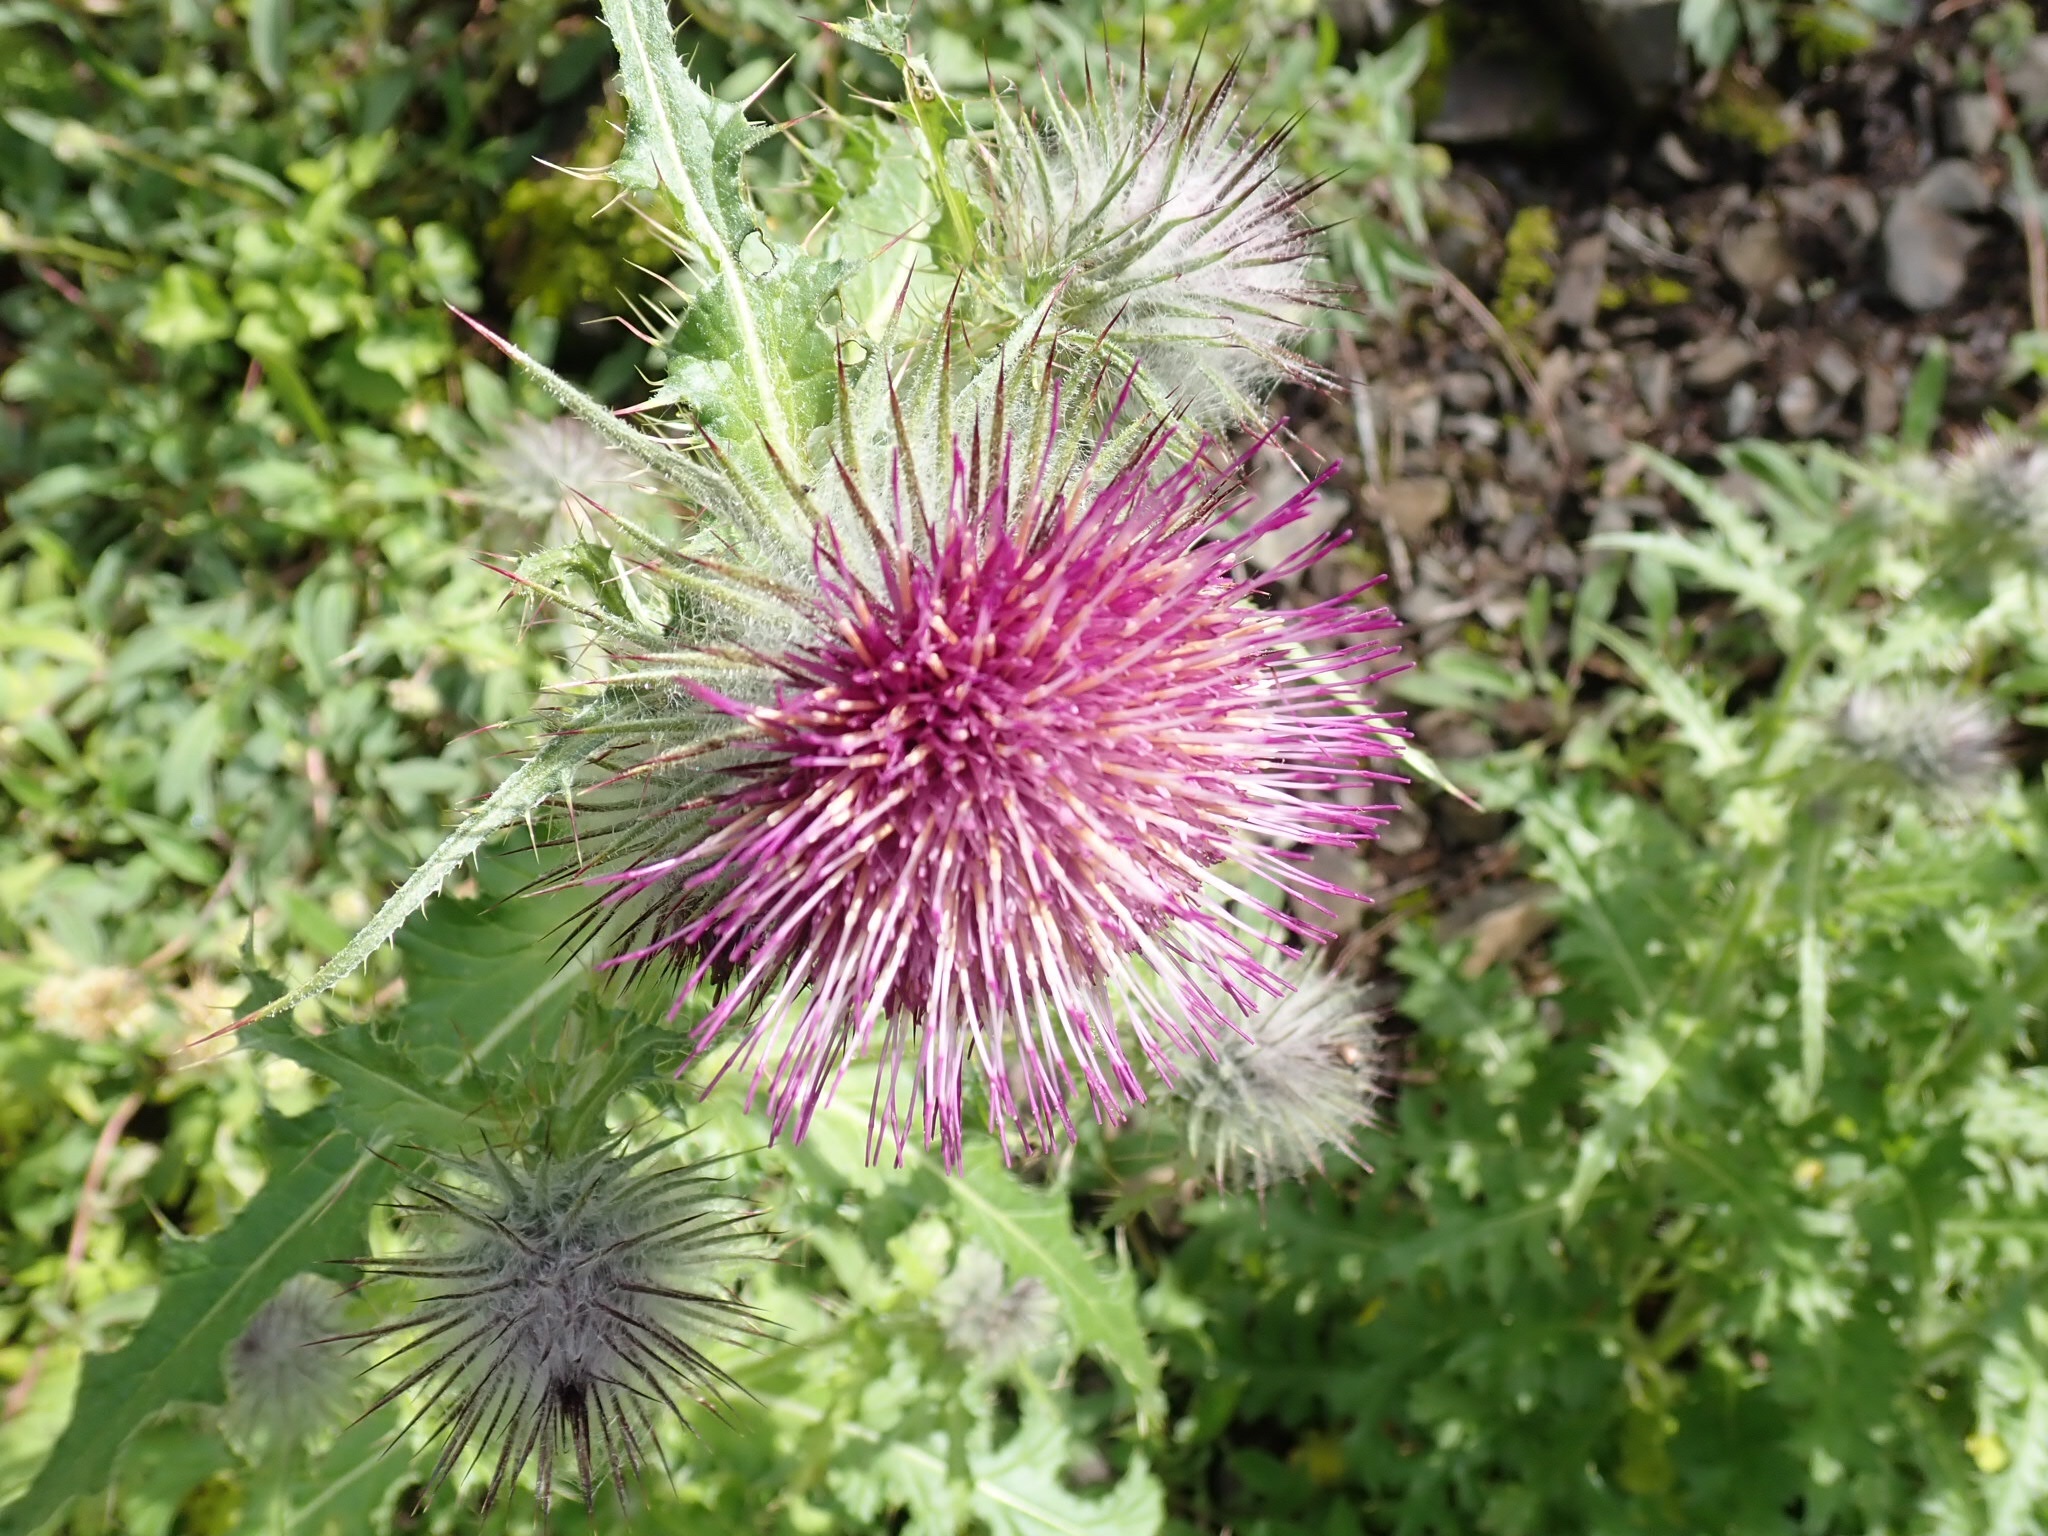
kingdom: Plantae
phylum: Tracheophyta
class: Magnoliopsida
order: Asterales
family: Asteraceae
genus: Cirsium
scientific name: Cirsium edule
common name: Indian thistle
